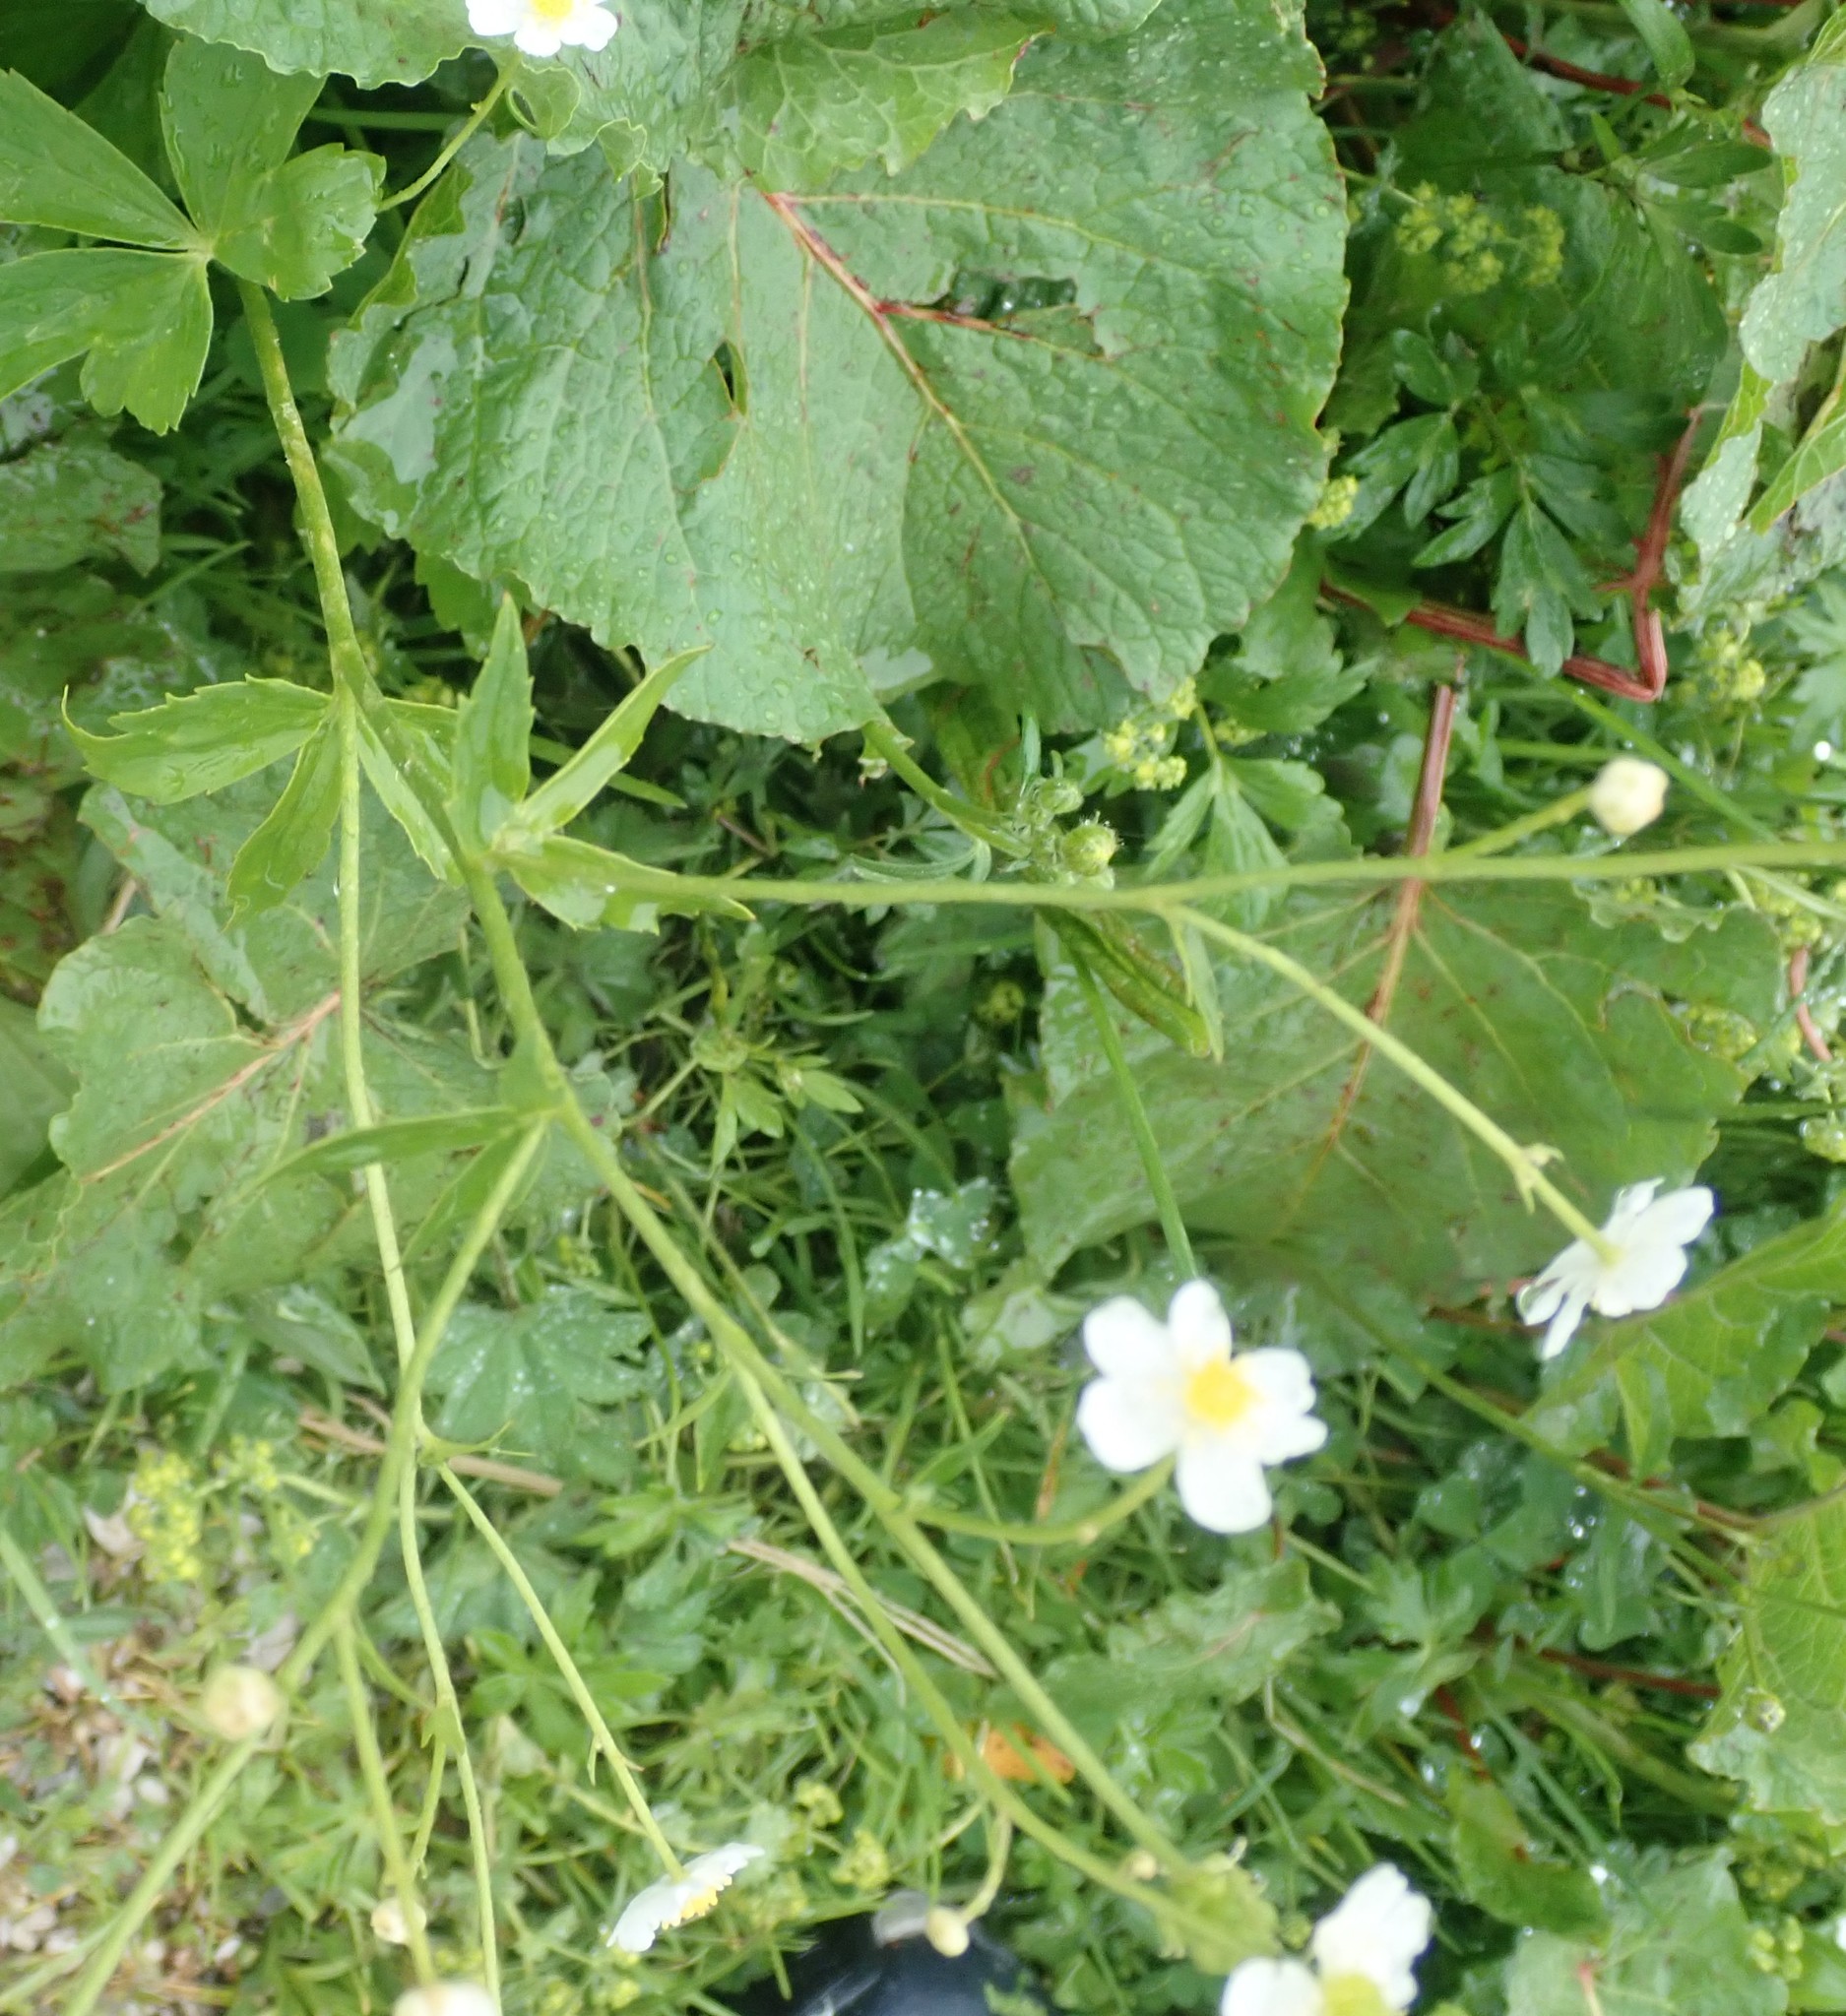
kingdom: Plantae
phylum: Tracheophyta
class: Magnoliopsida
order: Ranunculales
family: Ranunculaceae
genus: Ranunculus
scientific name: Ranunculus aconitifolius
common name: Aconite-leaved buttercup
